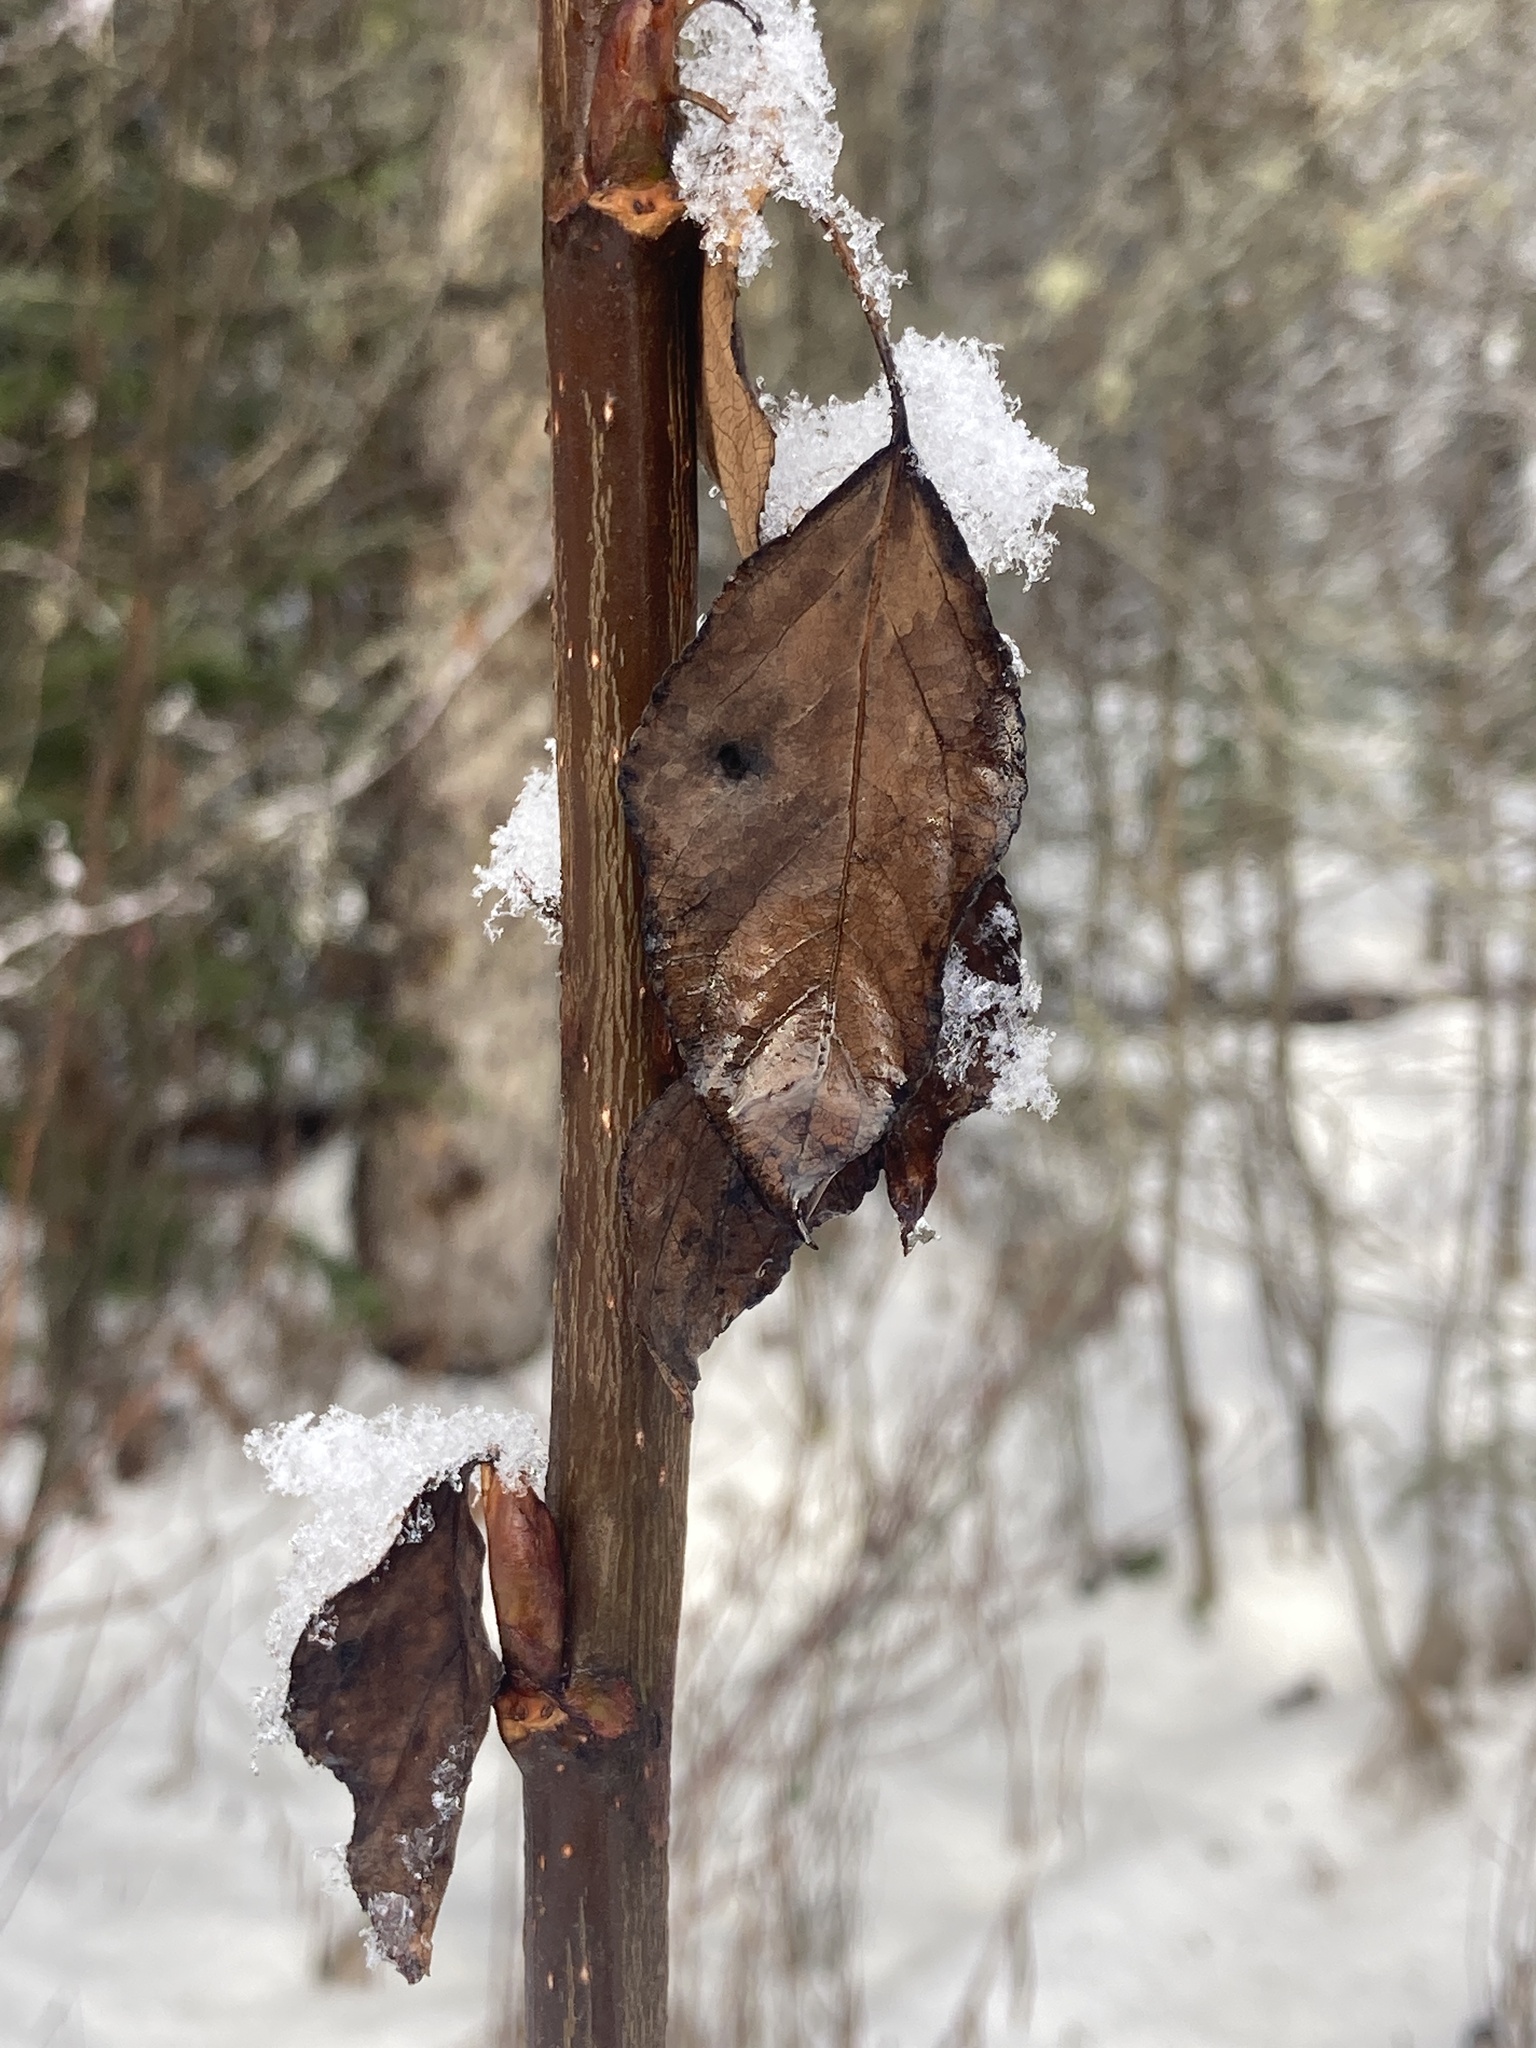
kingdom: Plantae
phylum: Tracheophyta
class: Magnoliopsida
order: Malpighiales
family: Salicaceae
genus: Populus
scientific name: Populus balsamifera
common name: Balsam poplar
